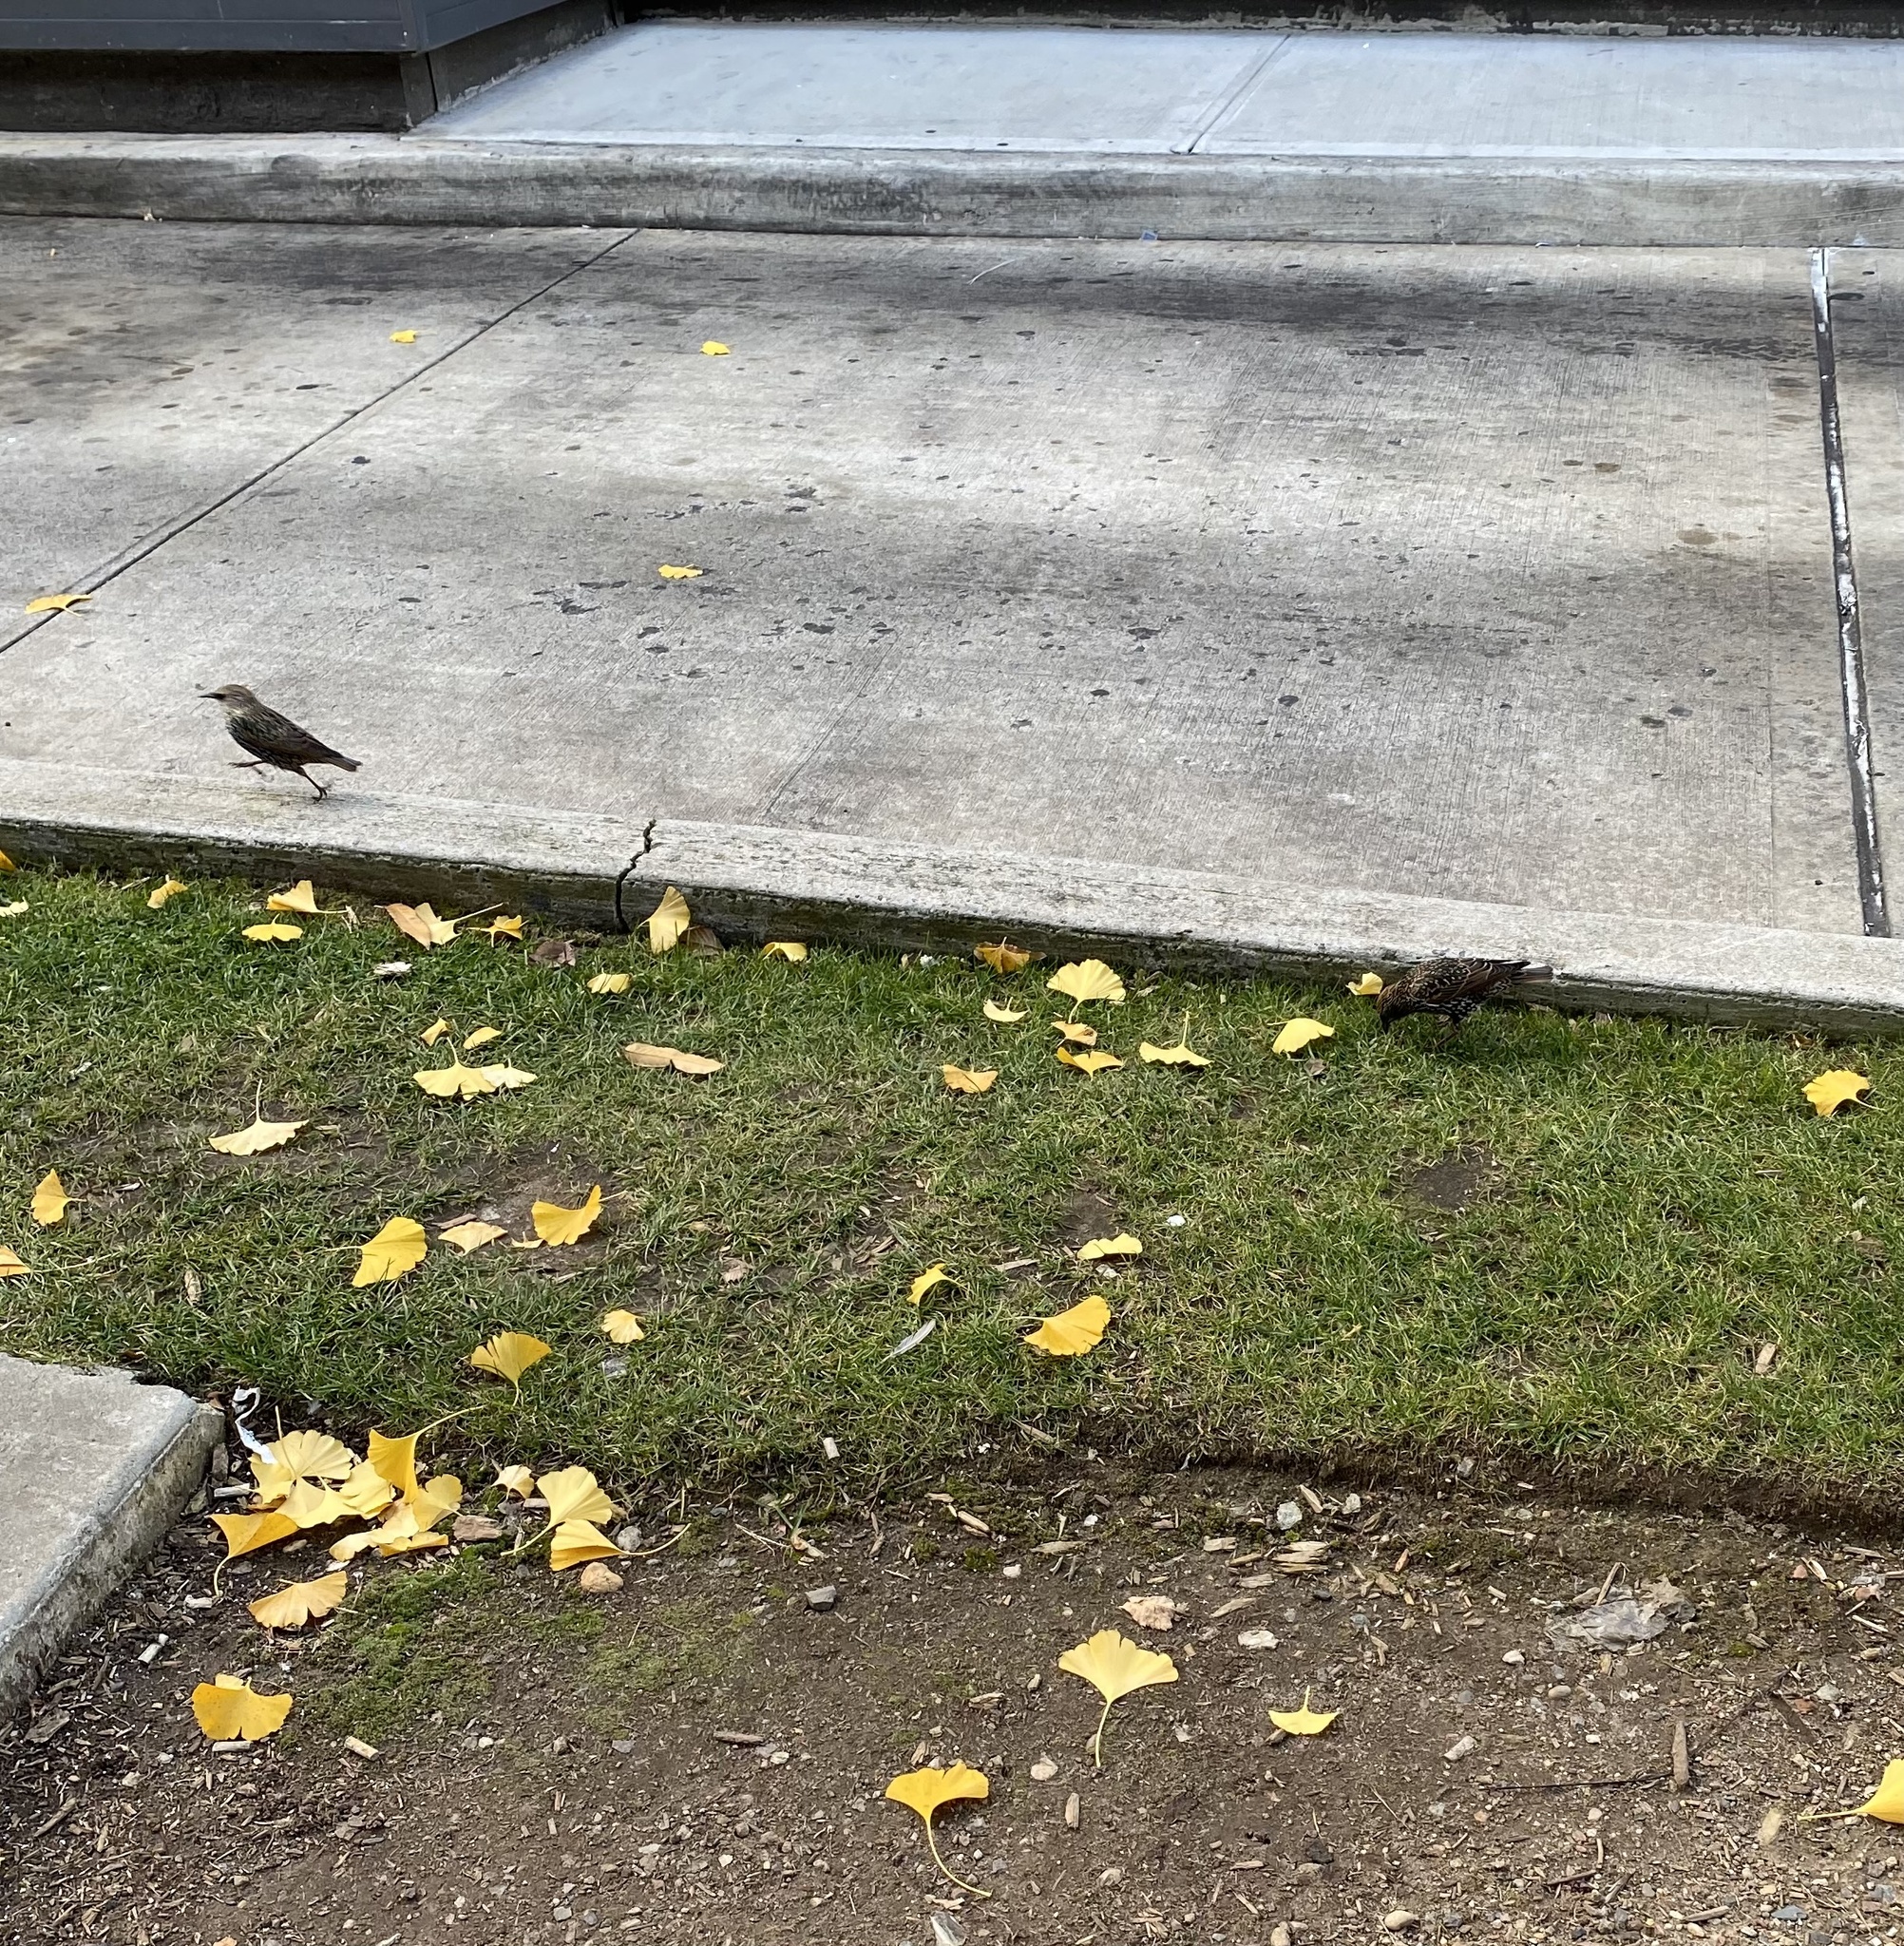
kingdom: Animalia
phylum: Chordata
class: Aves
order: Passeriformes
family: Sturnidae
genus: Sturnus
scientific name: Sturnus vulgaris
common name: Common starling
